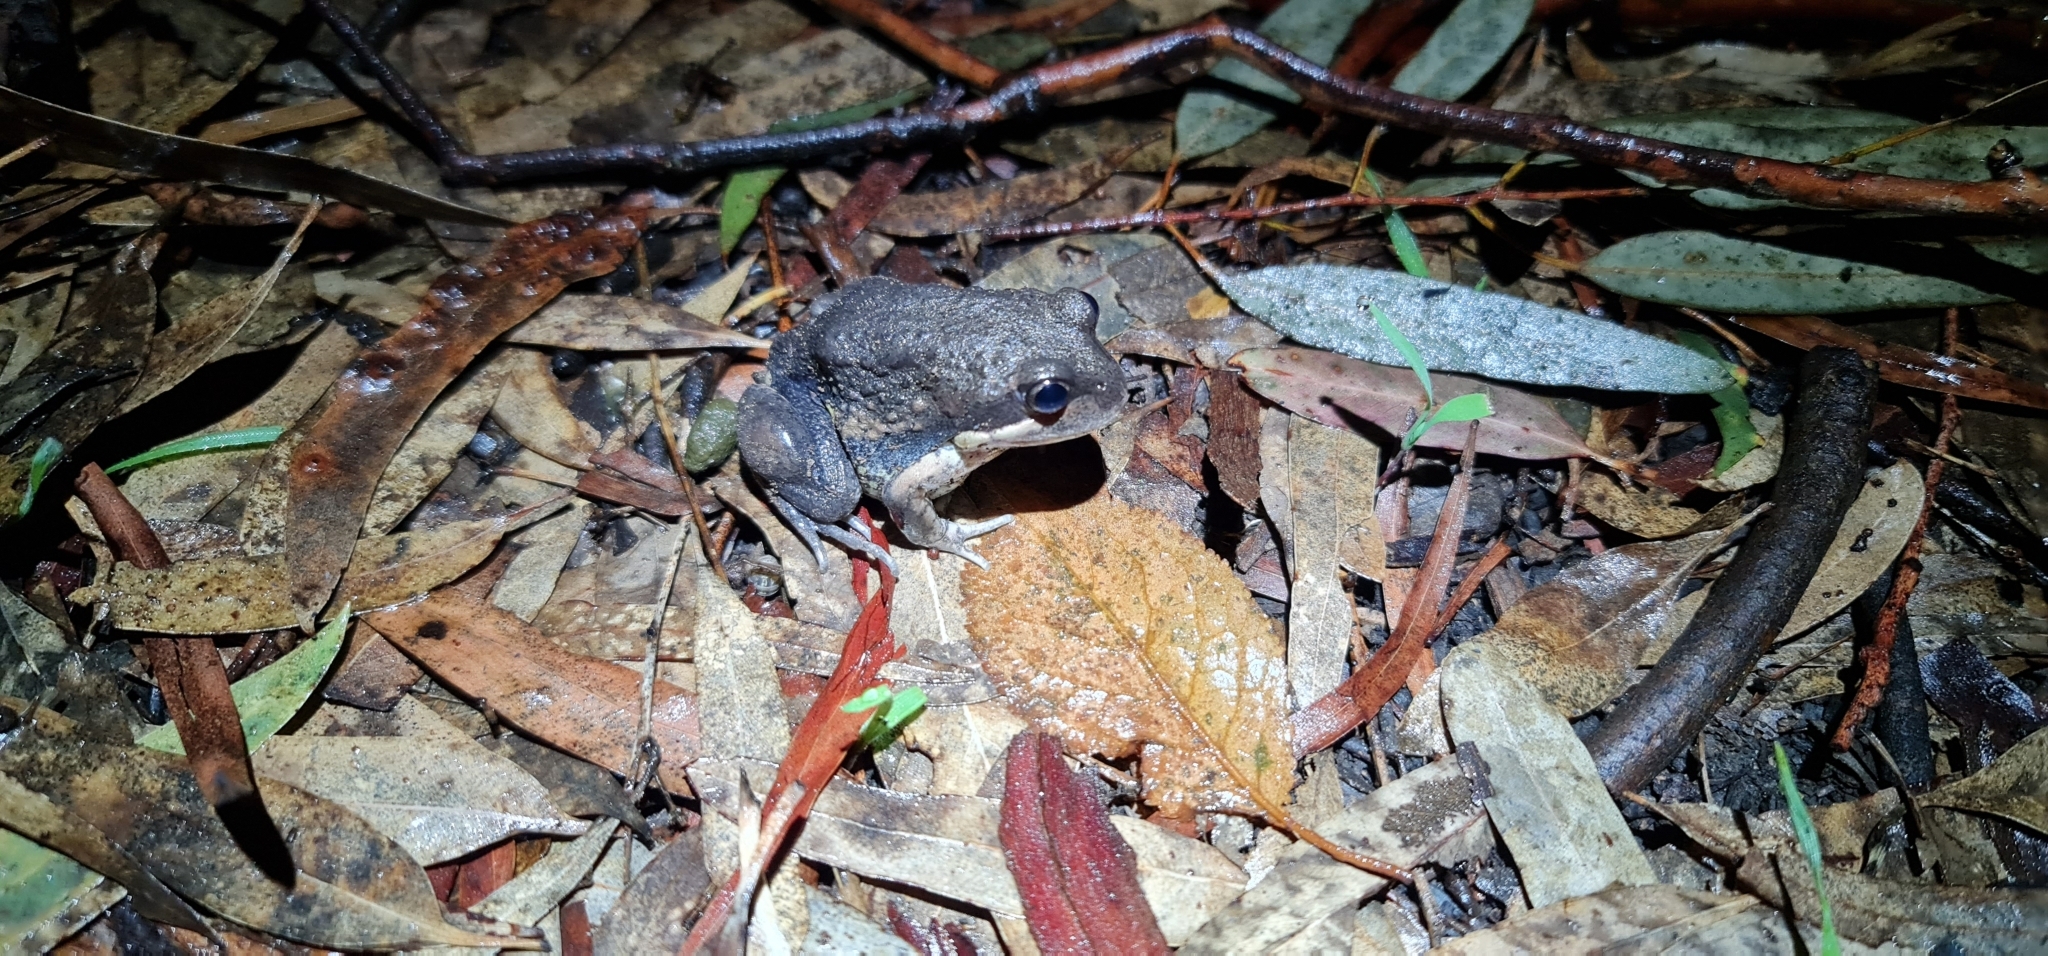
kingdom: Animalia
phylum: Chordata
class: Amphibia
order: Anura
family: Limnodynastidae
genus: Limnodynastes
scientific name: Limnodynastes dumerilii
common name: Banjo frog
